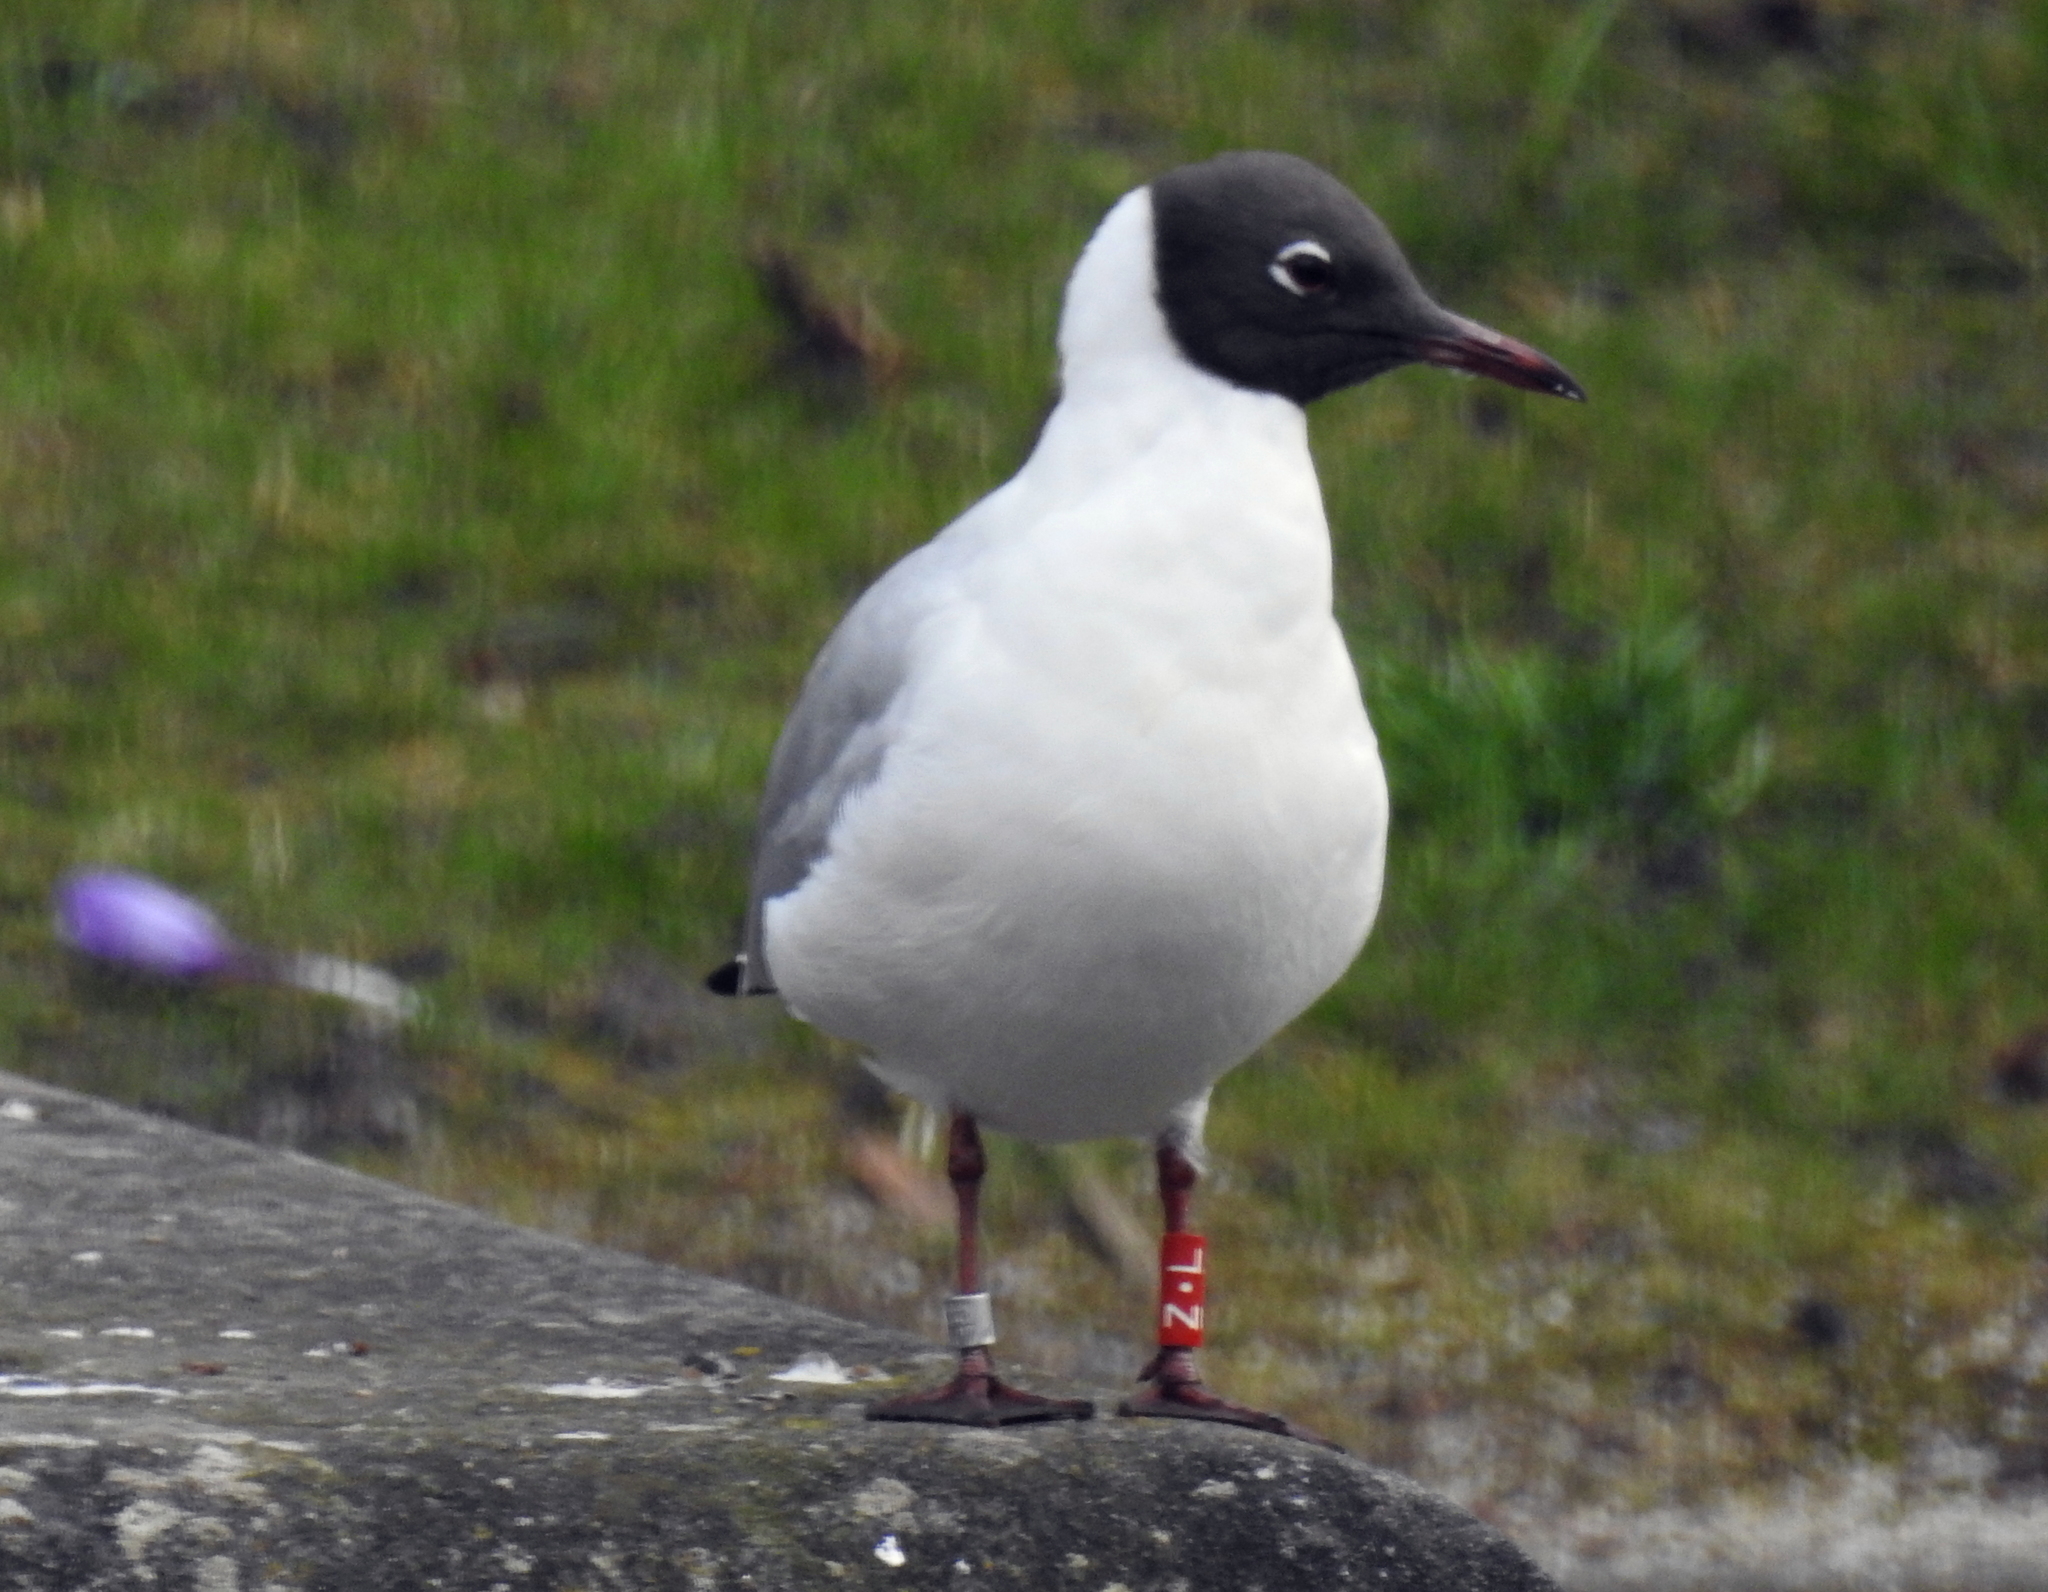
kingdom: Animalia
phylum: Chordata
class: Aves
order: Charadriiformes
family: Laridae
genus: Chroicocephalus
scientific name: Chroicocephalus ridibundus
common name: Black-headed gull
